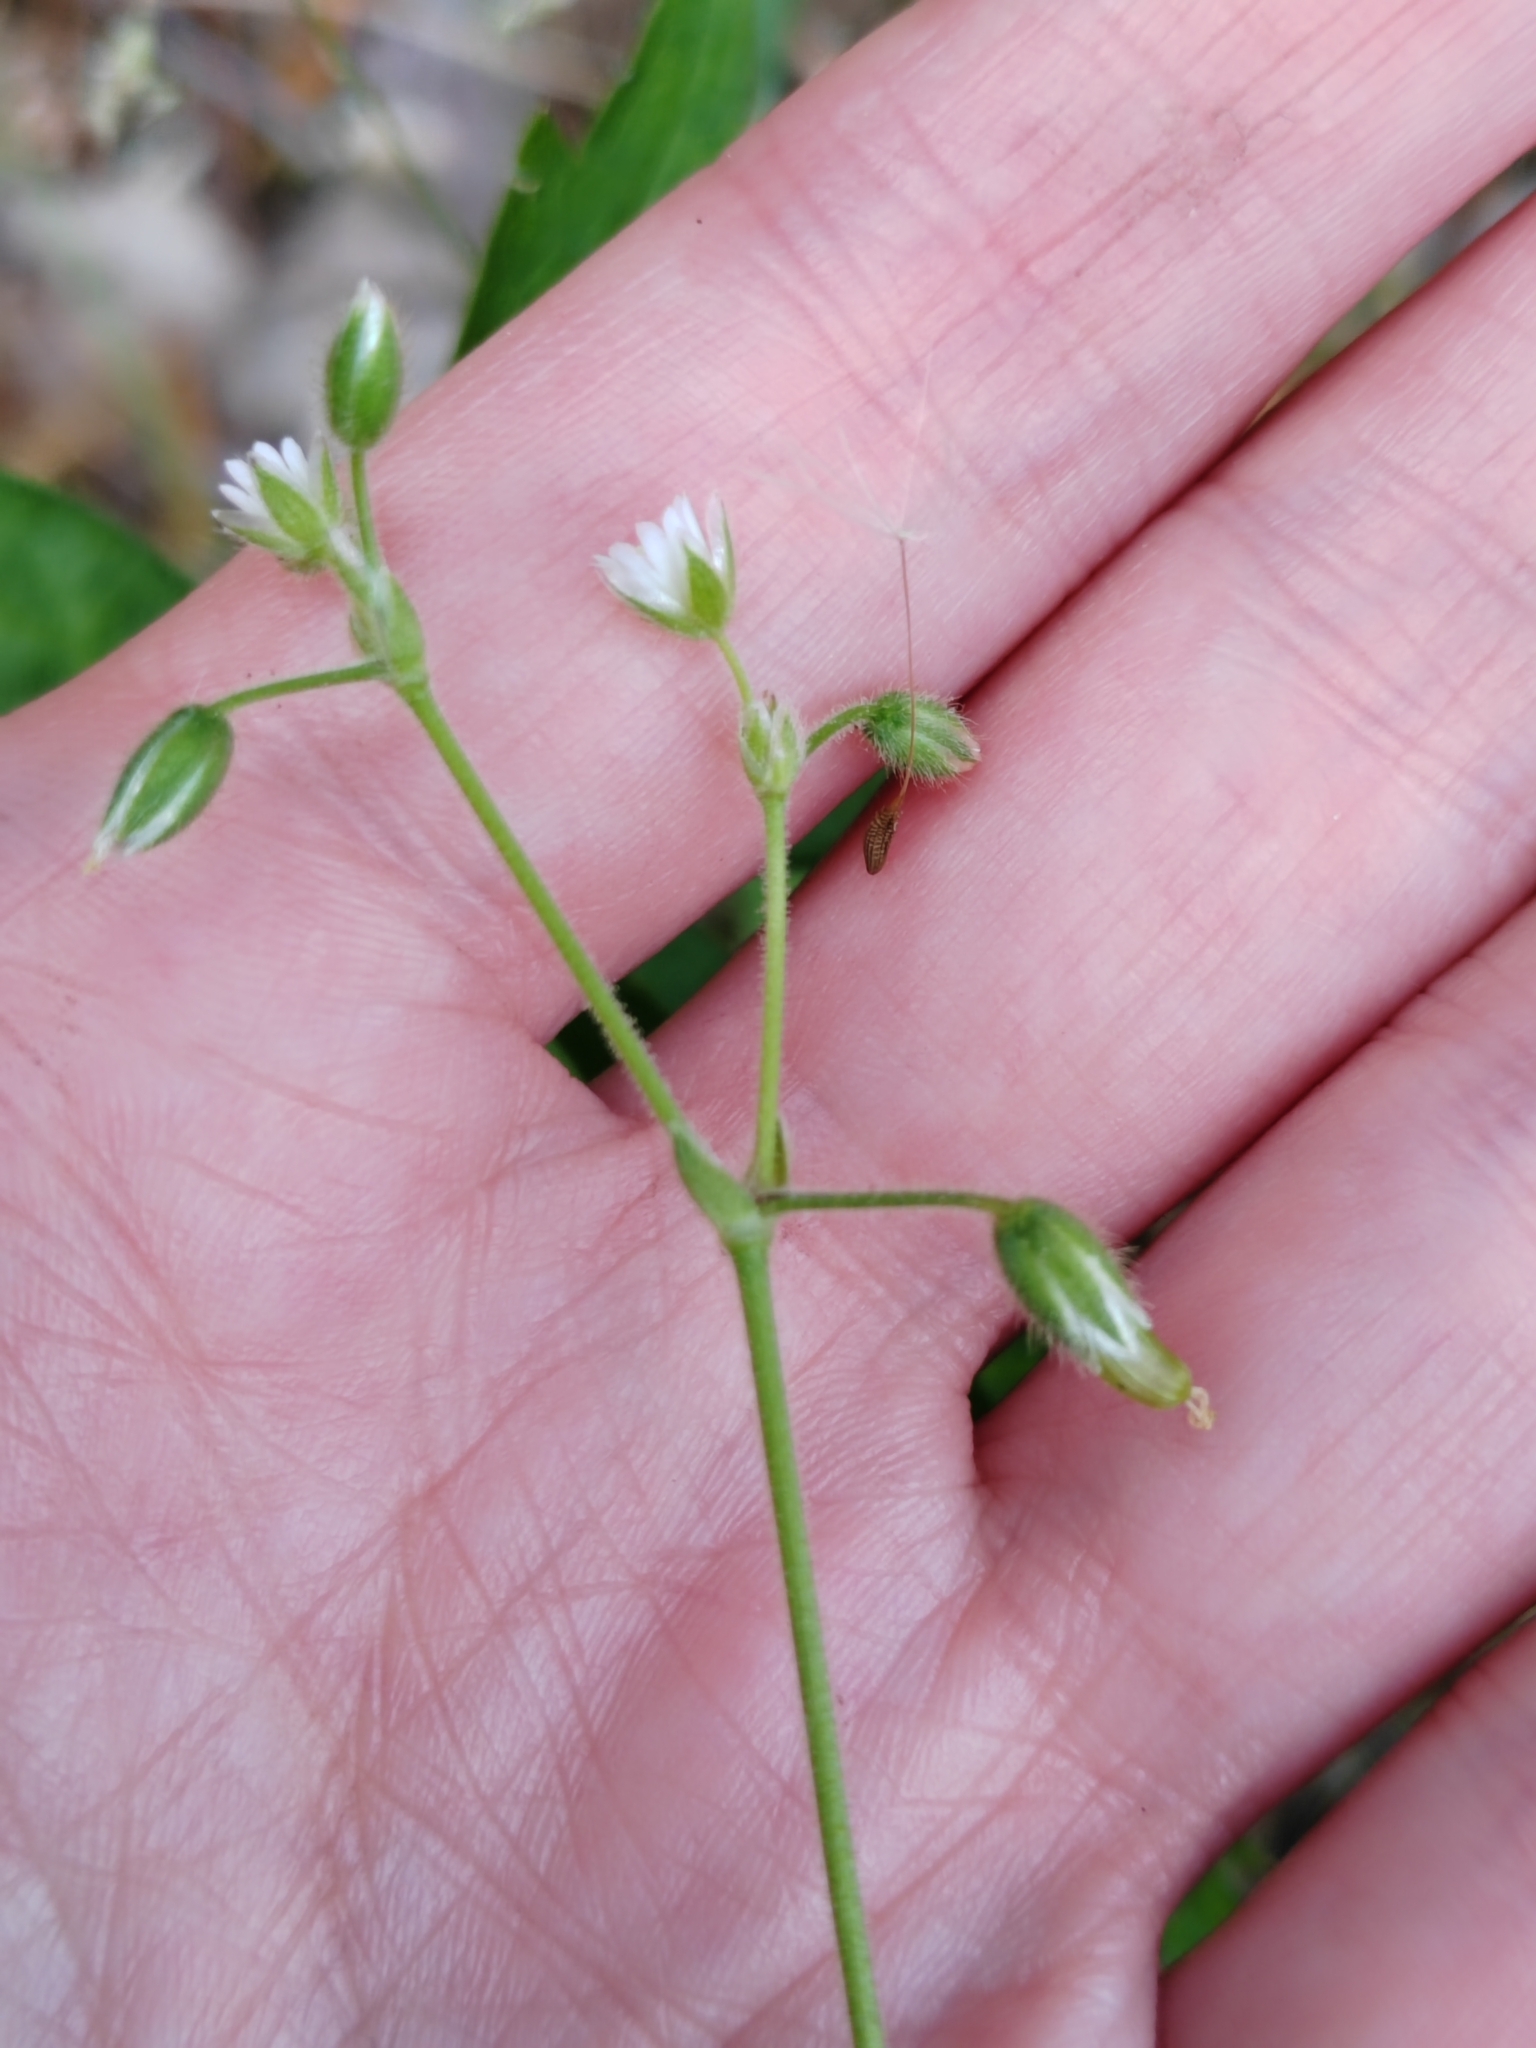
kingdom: Plantae
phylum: Tracheophyta
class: Magnoliopsida
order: Caryophyllales
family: Caryophyllaceae
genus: Cerastium
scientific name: Cerastium holosteoides
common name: Big chickweed
